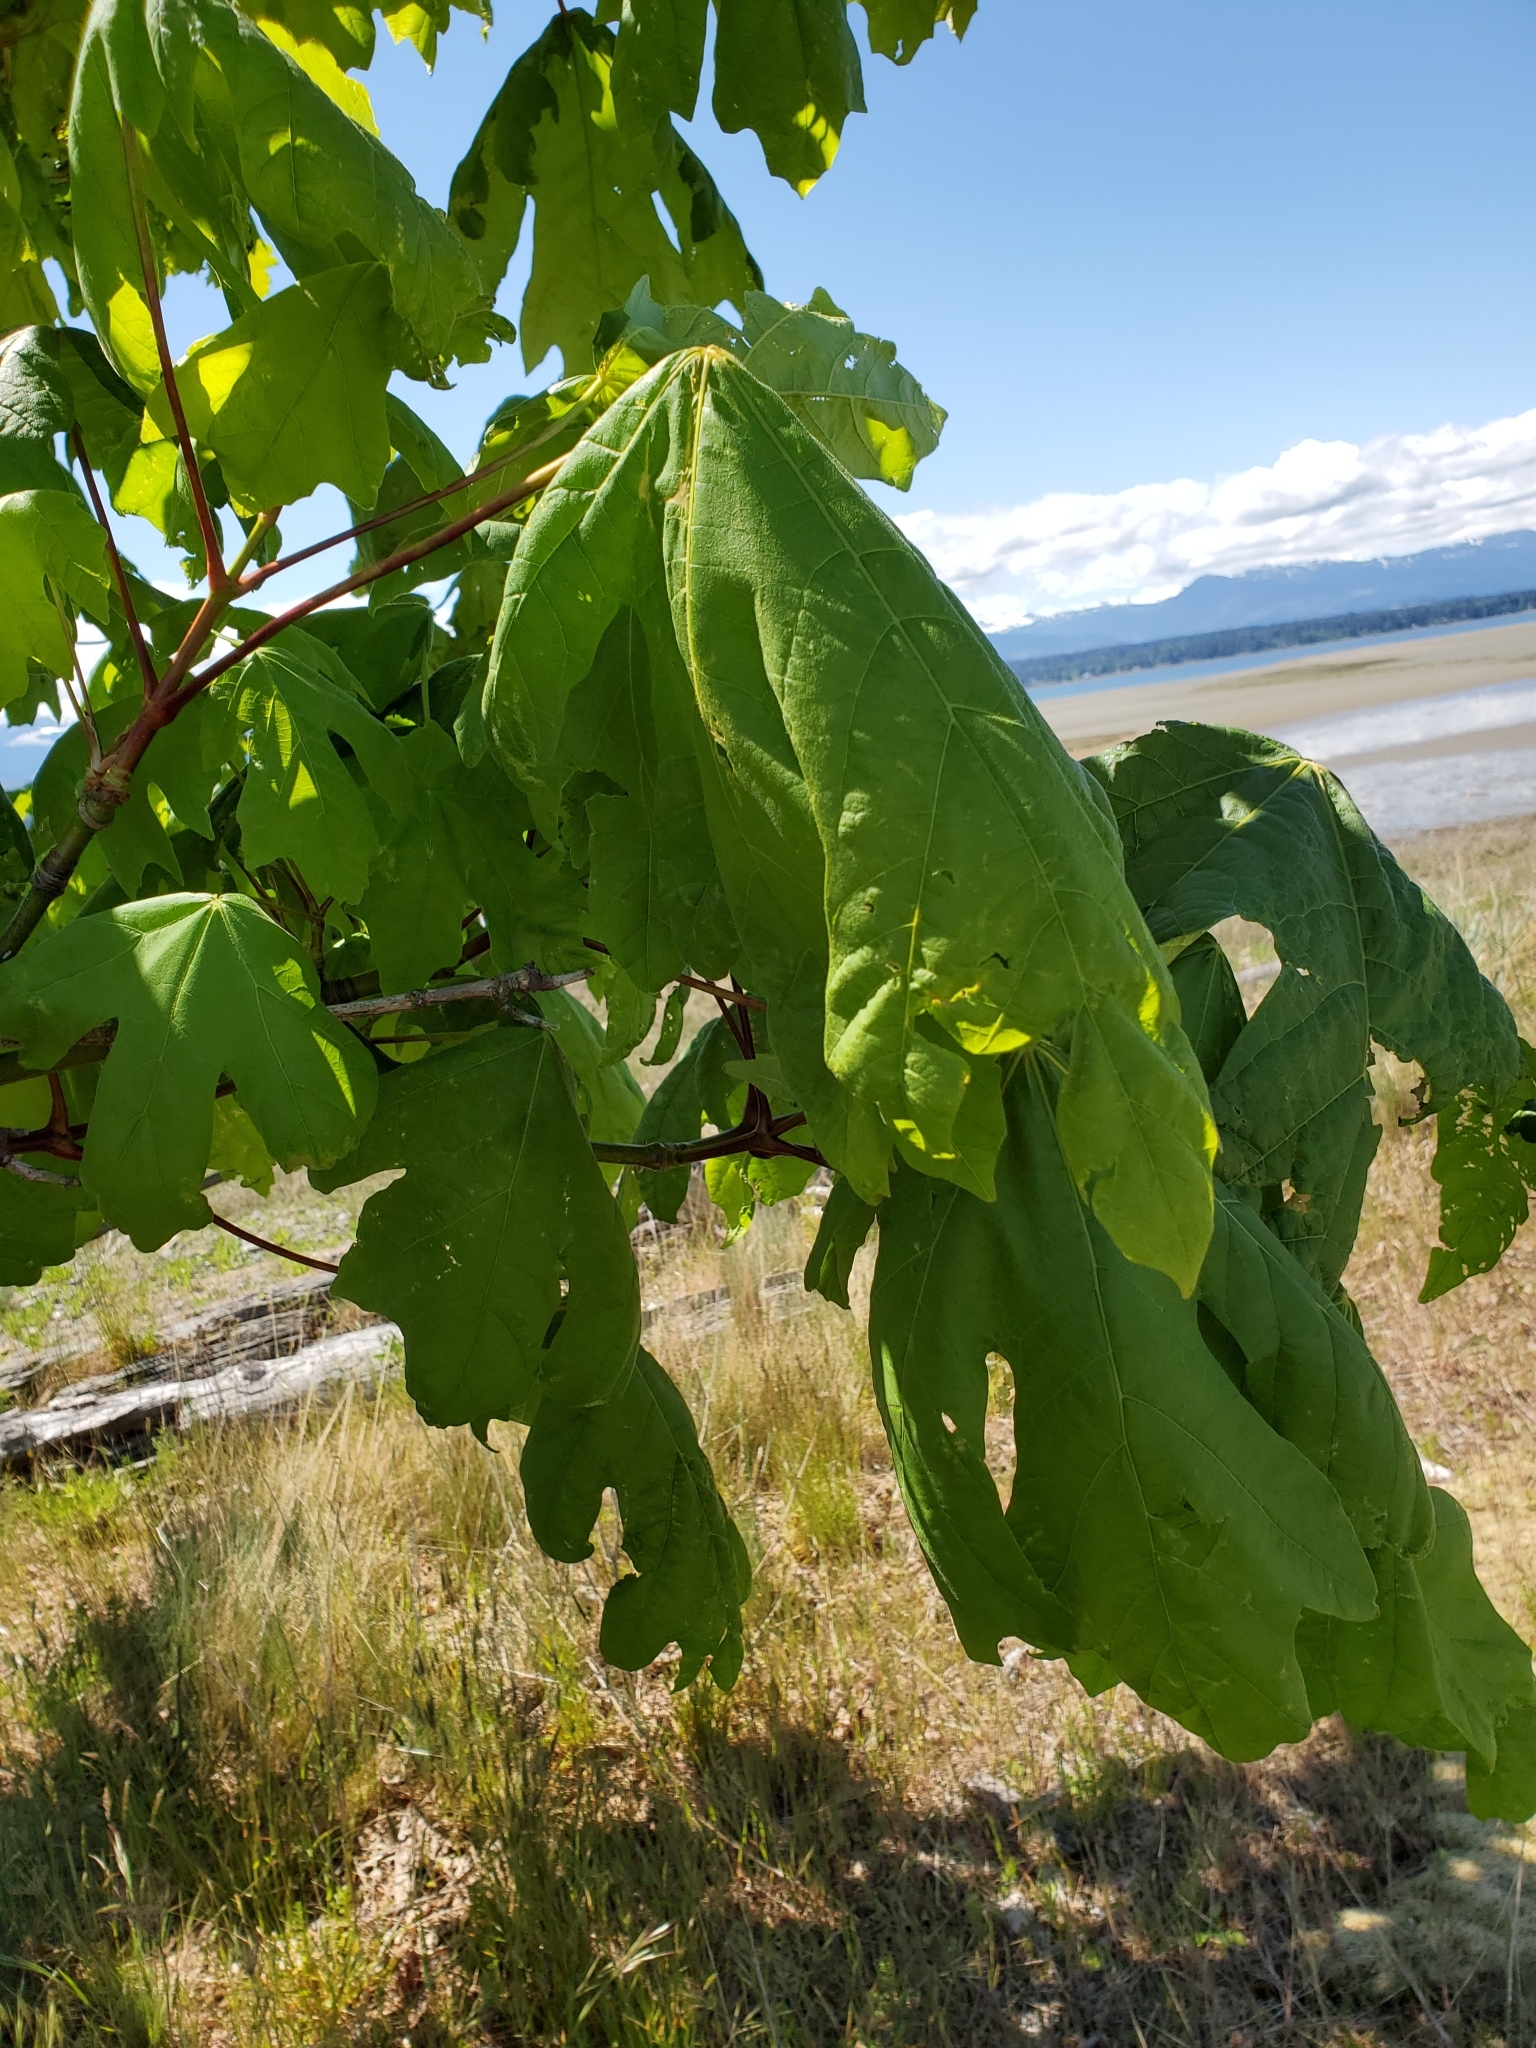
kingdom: Plantae
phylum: Tracheophyta
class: Magnoliopsida
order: Sapindales
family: Sapindaceae
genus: Acer
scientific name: Acer macrophyllum
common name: Oregon maple
